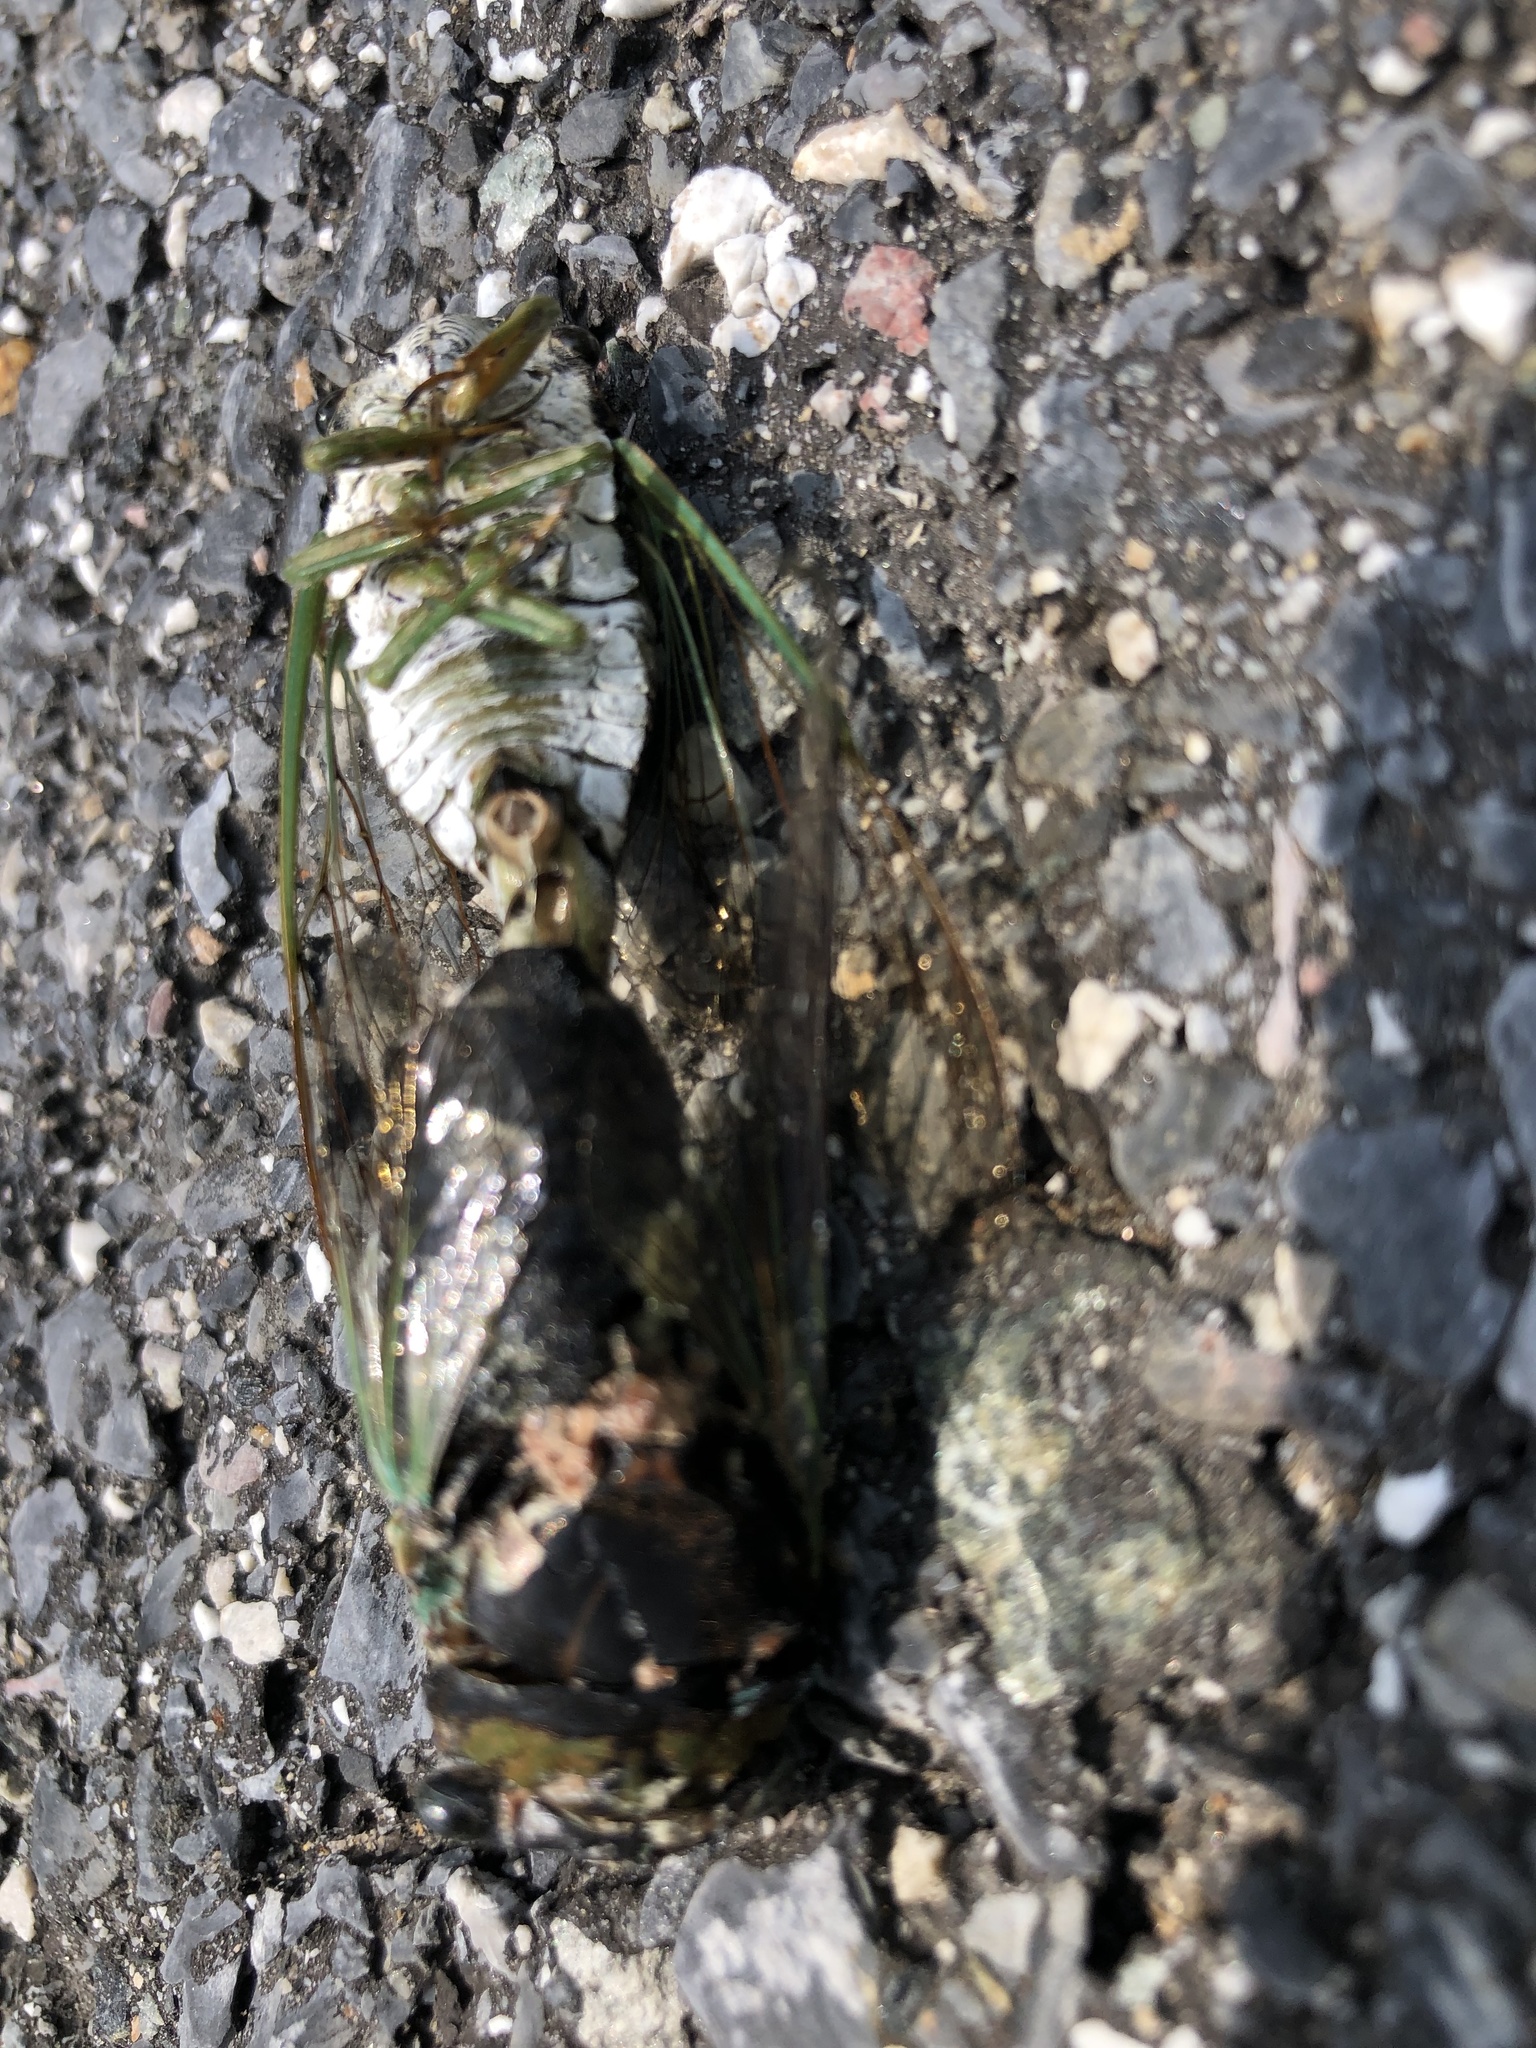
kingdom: Animalia
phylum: Arthropoda
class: Insecta
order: Hemiptera
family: Cicadidae
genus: Neotibicen
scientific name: Neotibicen tibicen
